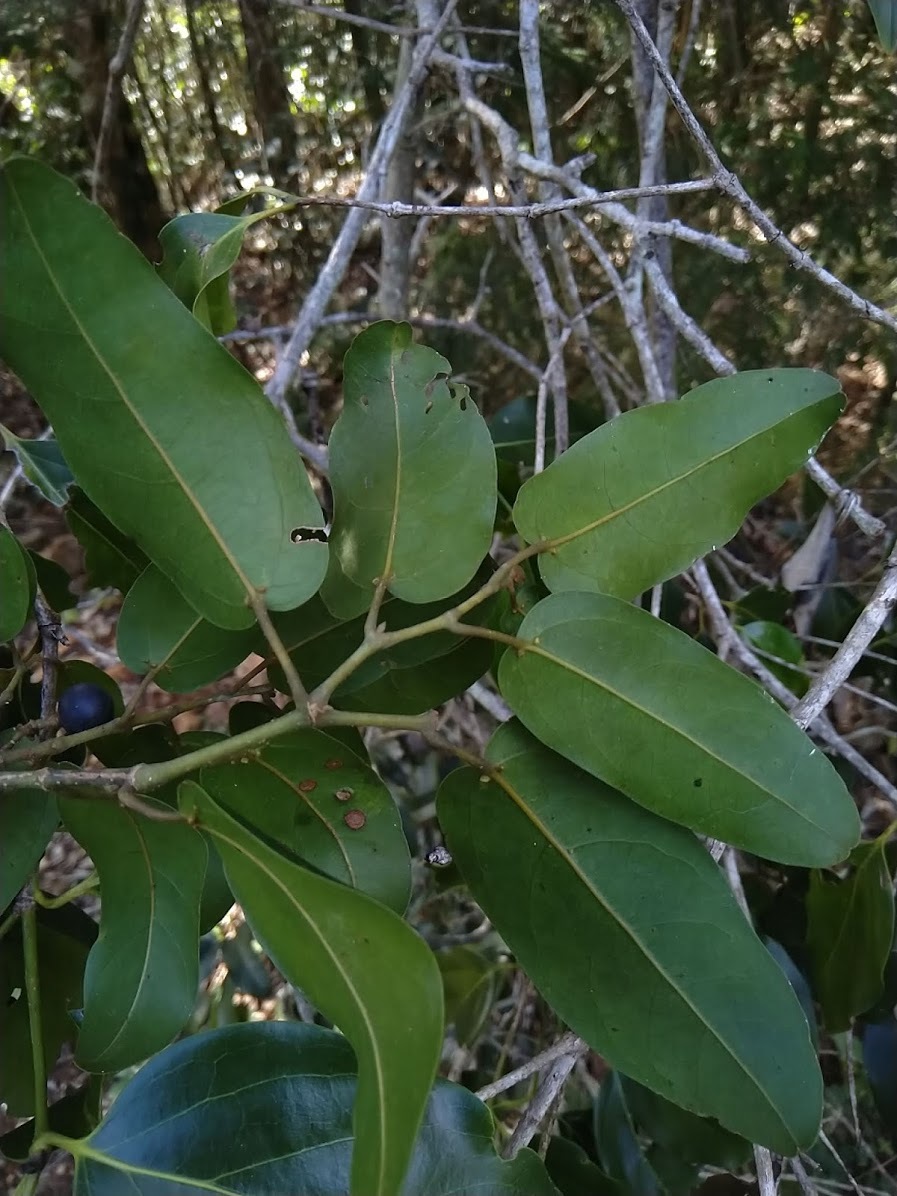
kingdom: Plantae
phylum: Tracheophyta
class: Magnoliopsida
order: Vitales
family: Vitaceae
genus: Cissus
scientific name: Cissus oblonga
